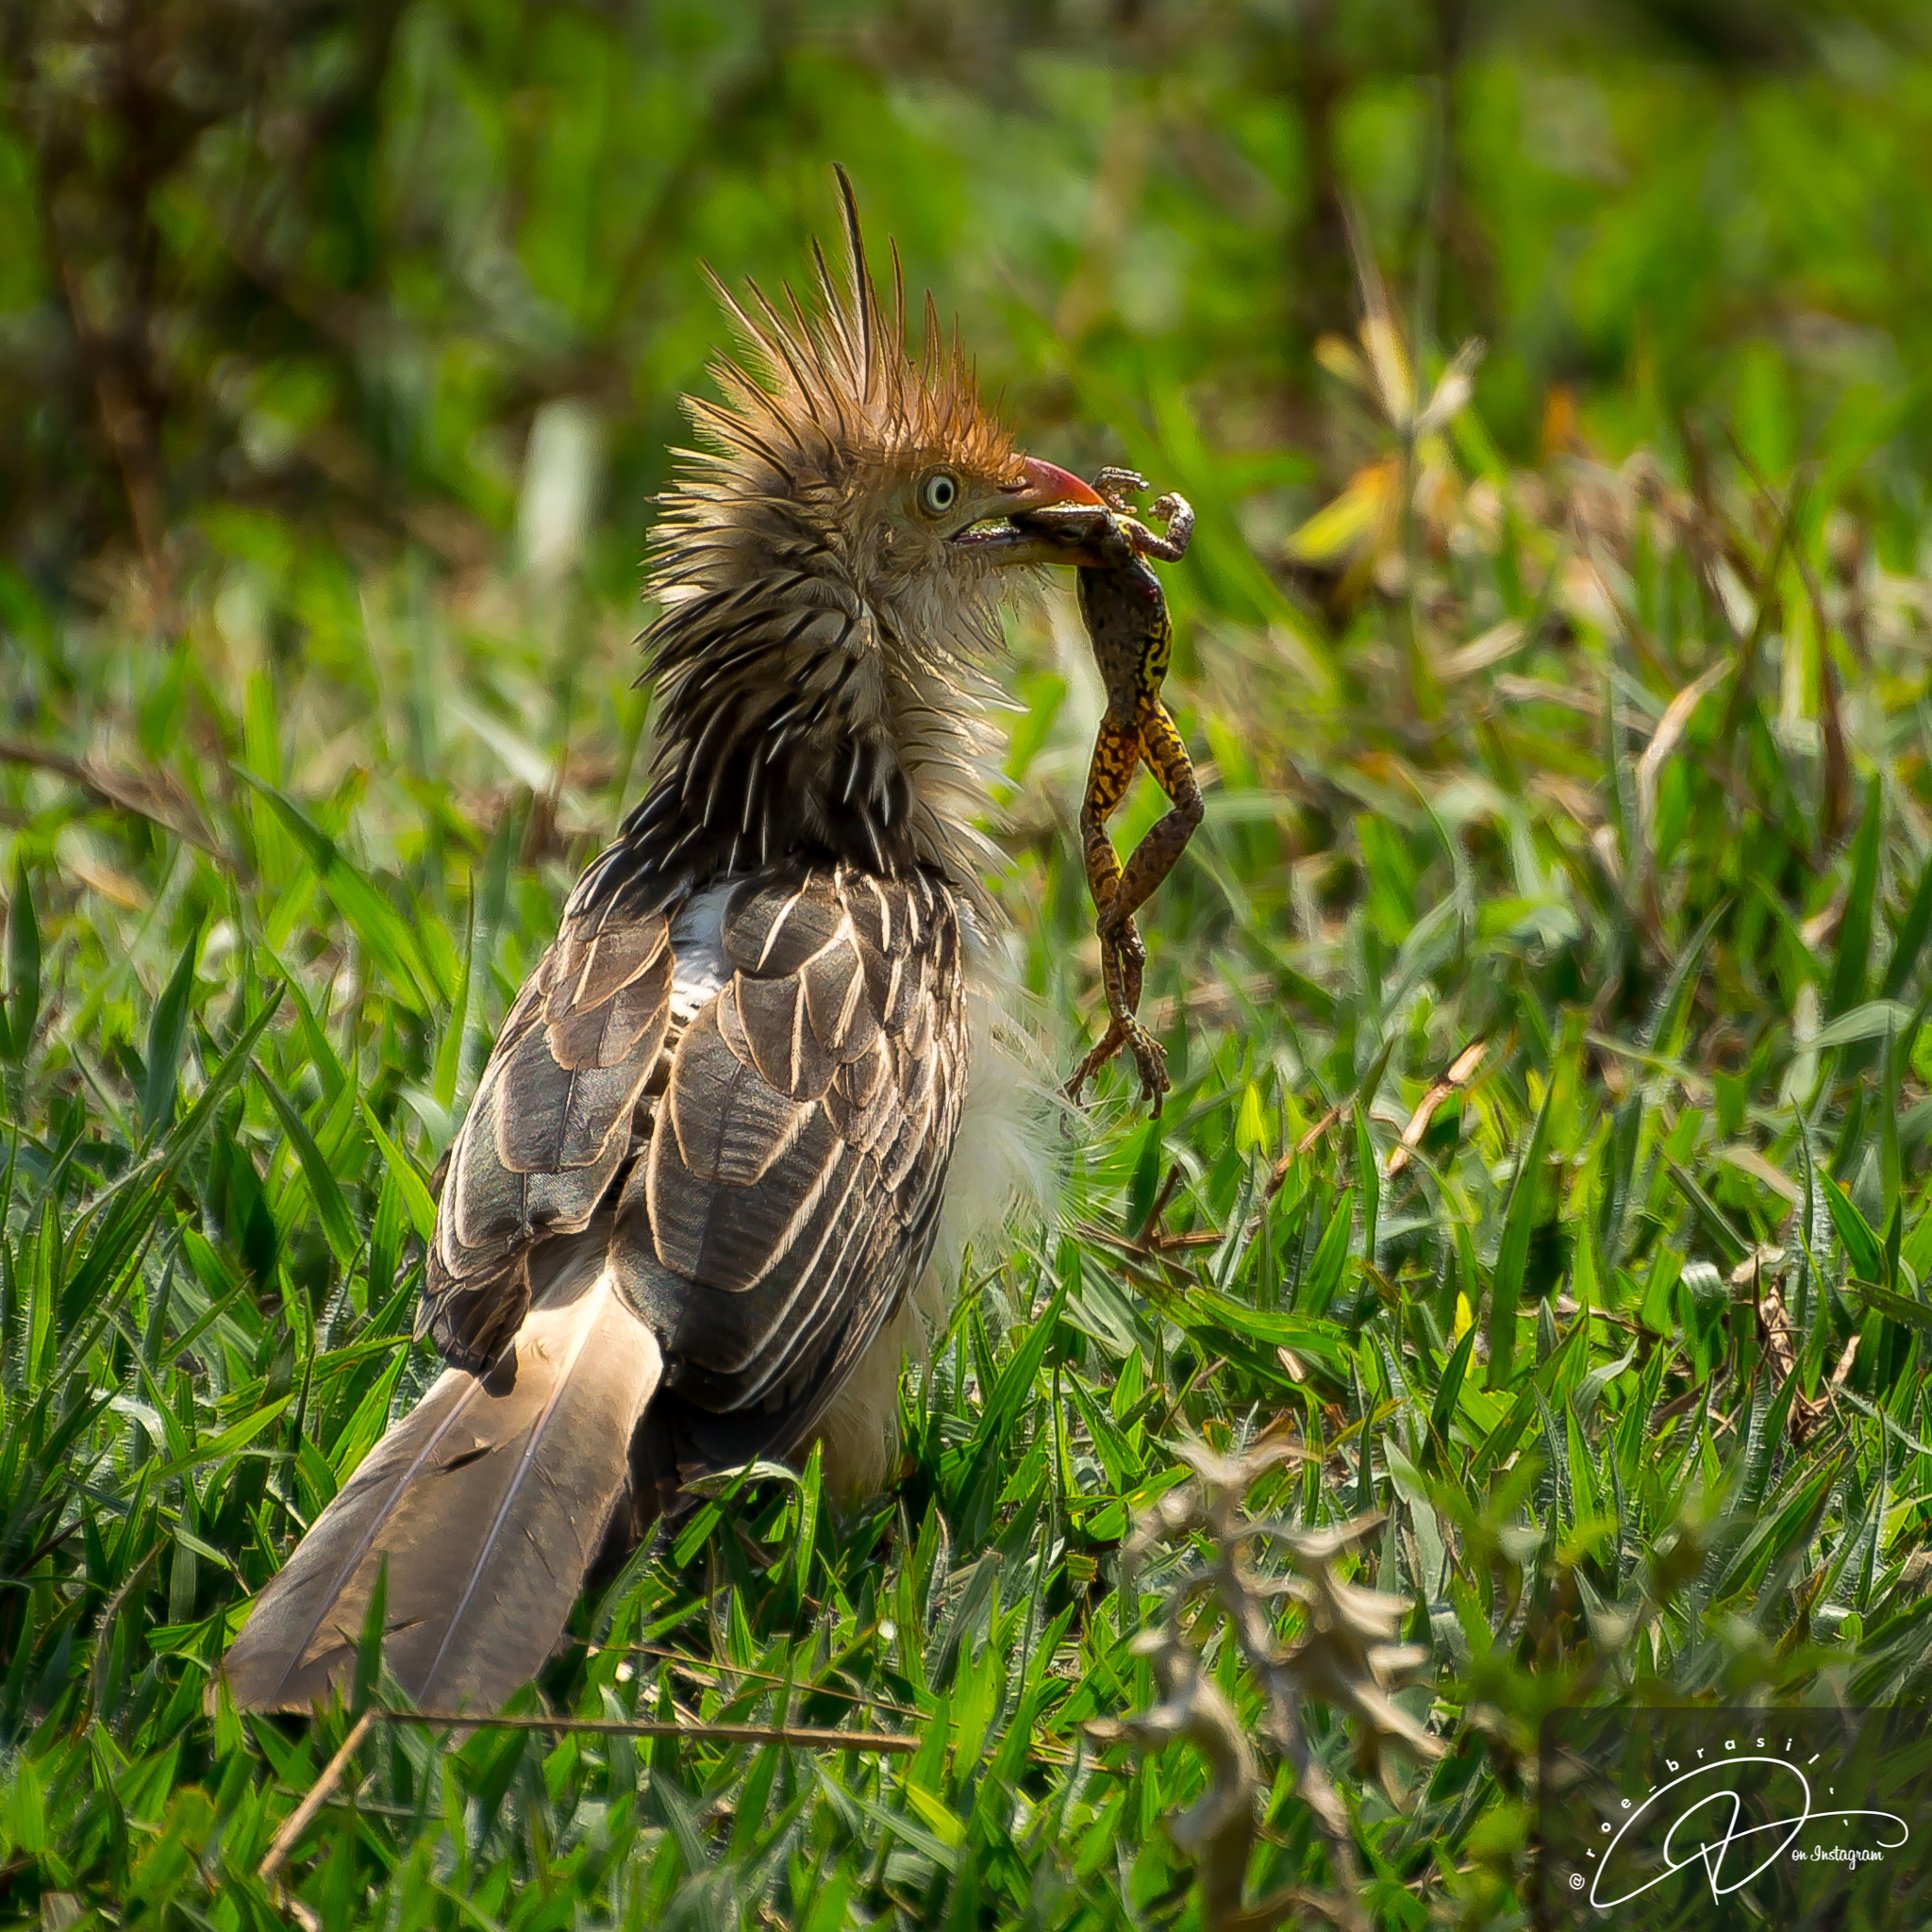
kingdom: Animalia
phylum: Chordata
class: Aves
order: Cuculiformes
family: Cuculidae
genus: Guira
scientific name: Guira guira
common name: Guira cuckoo
